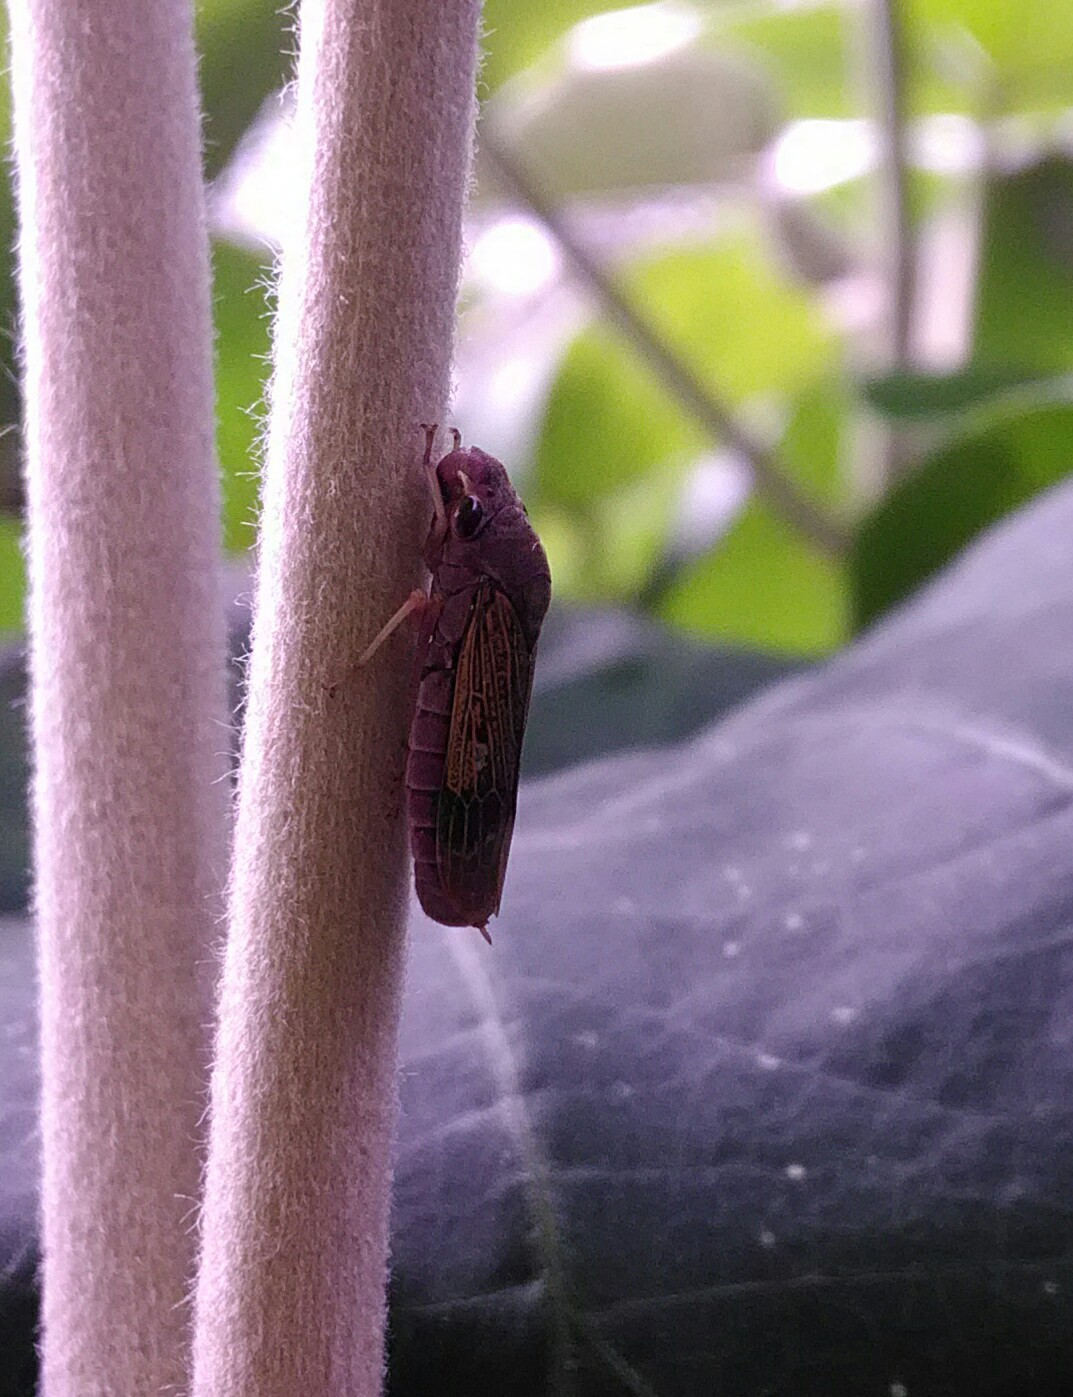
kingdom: Animalia
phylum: Arthropoda
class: Insecta
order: Hemiptera
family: Cicadellidae
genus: Oncometopia
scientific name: Oncometopia facialis
